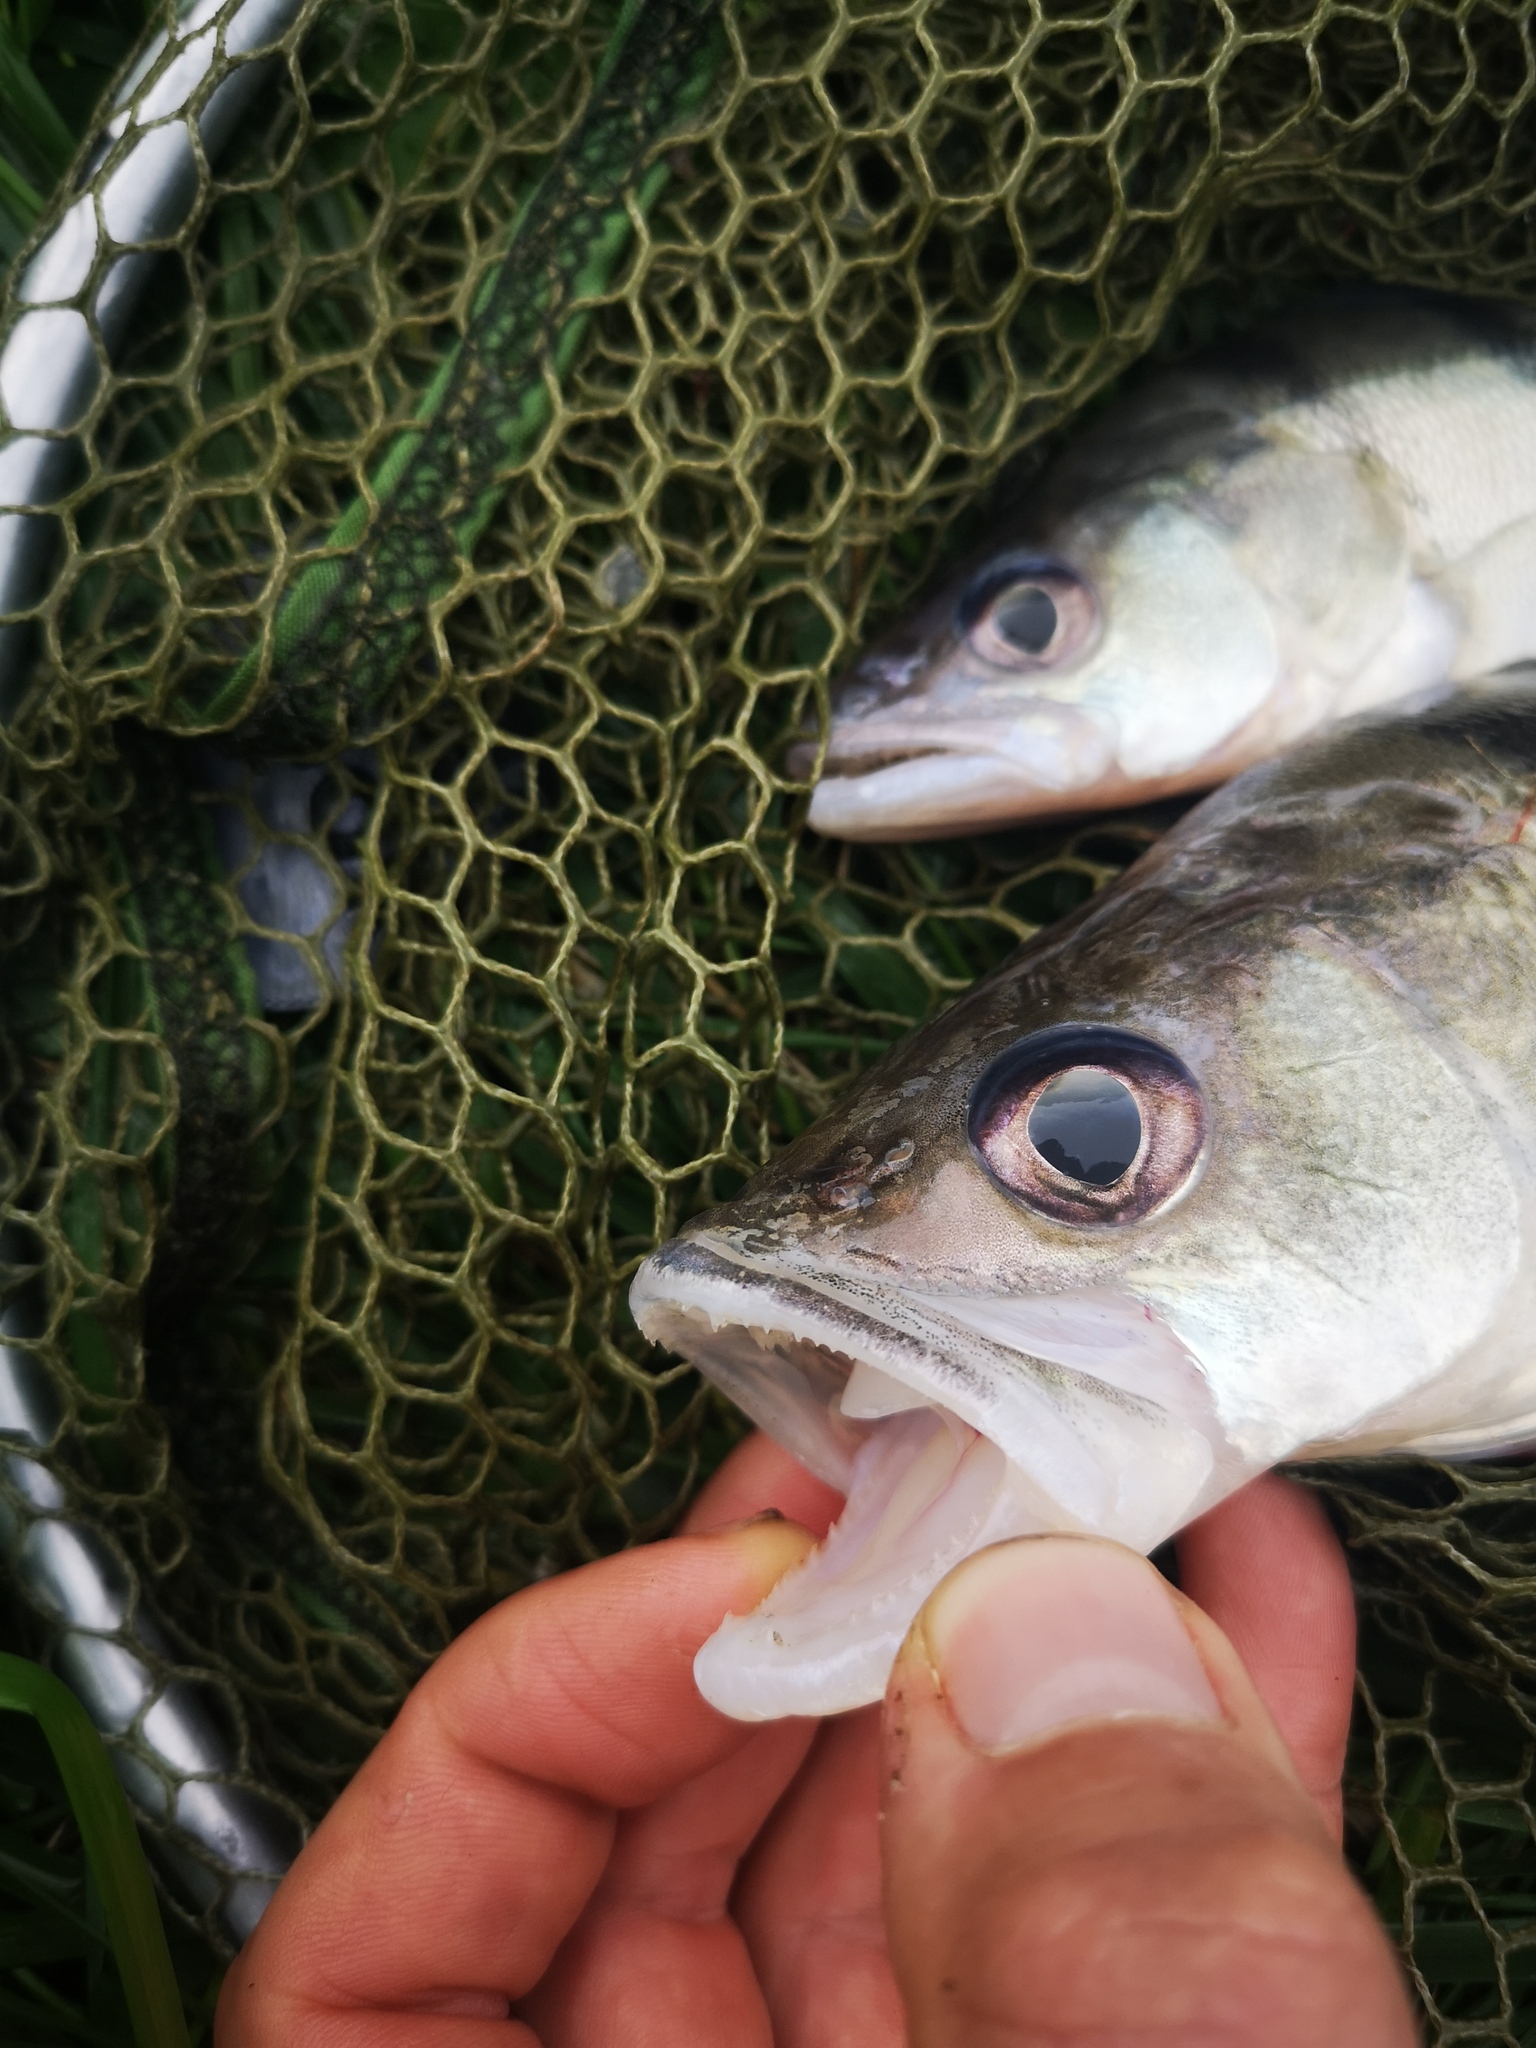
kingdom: Animalia
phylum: Chordata
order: Perciformes
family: Percidae
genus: Sander
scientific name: Sander volgensis
